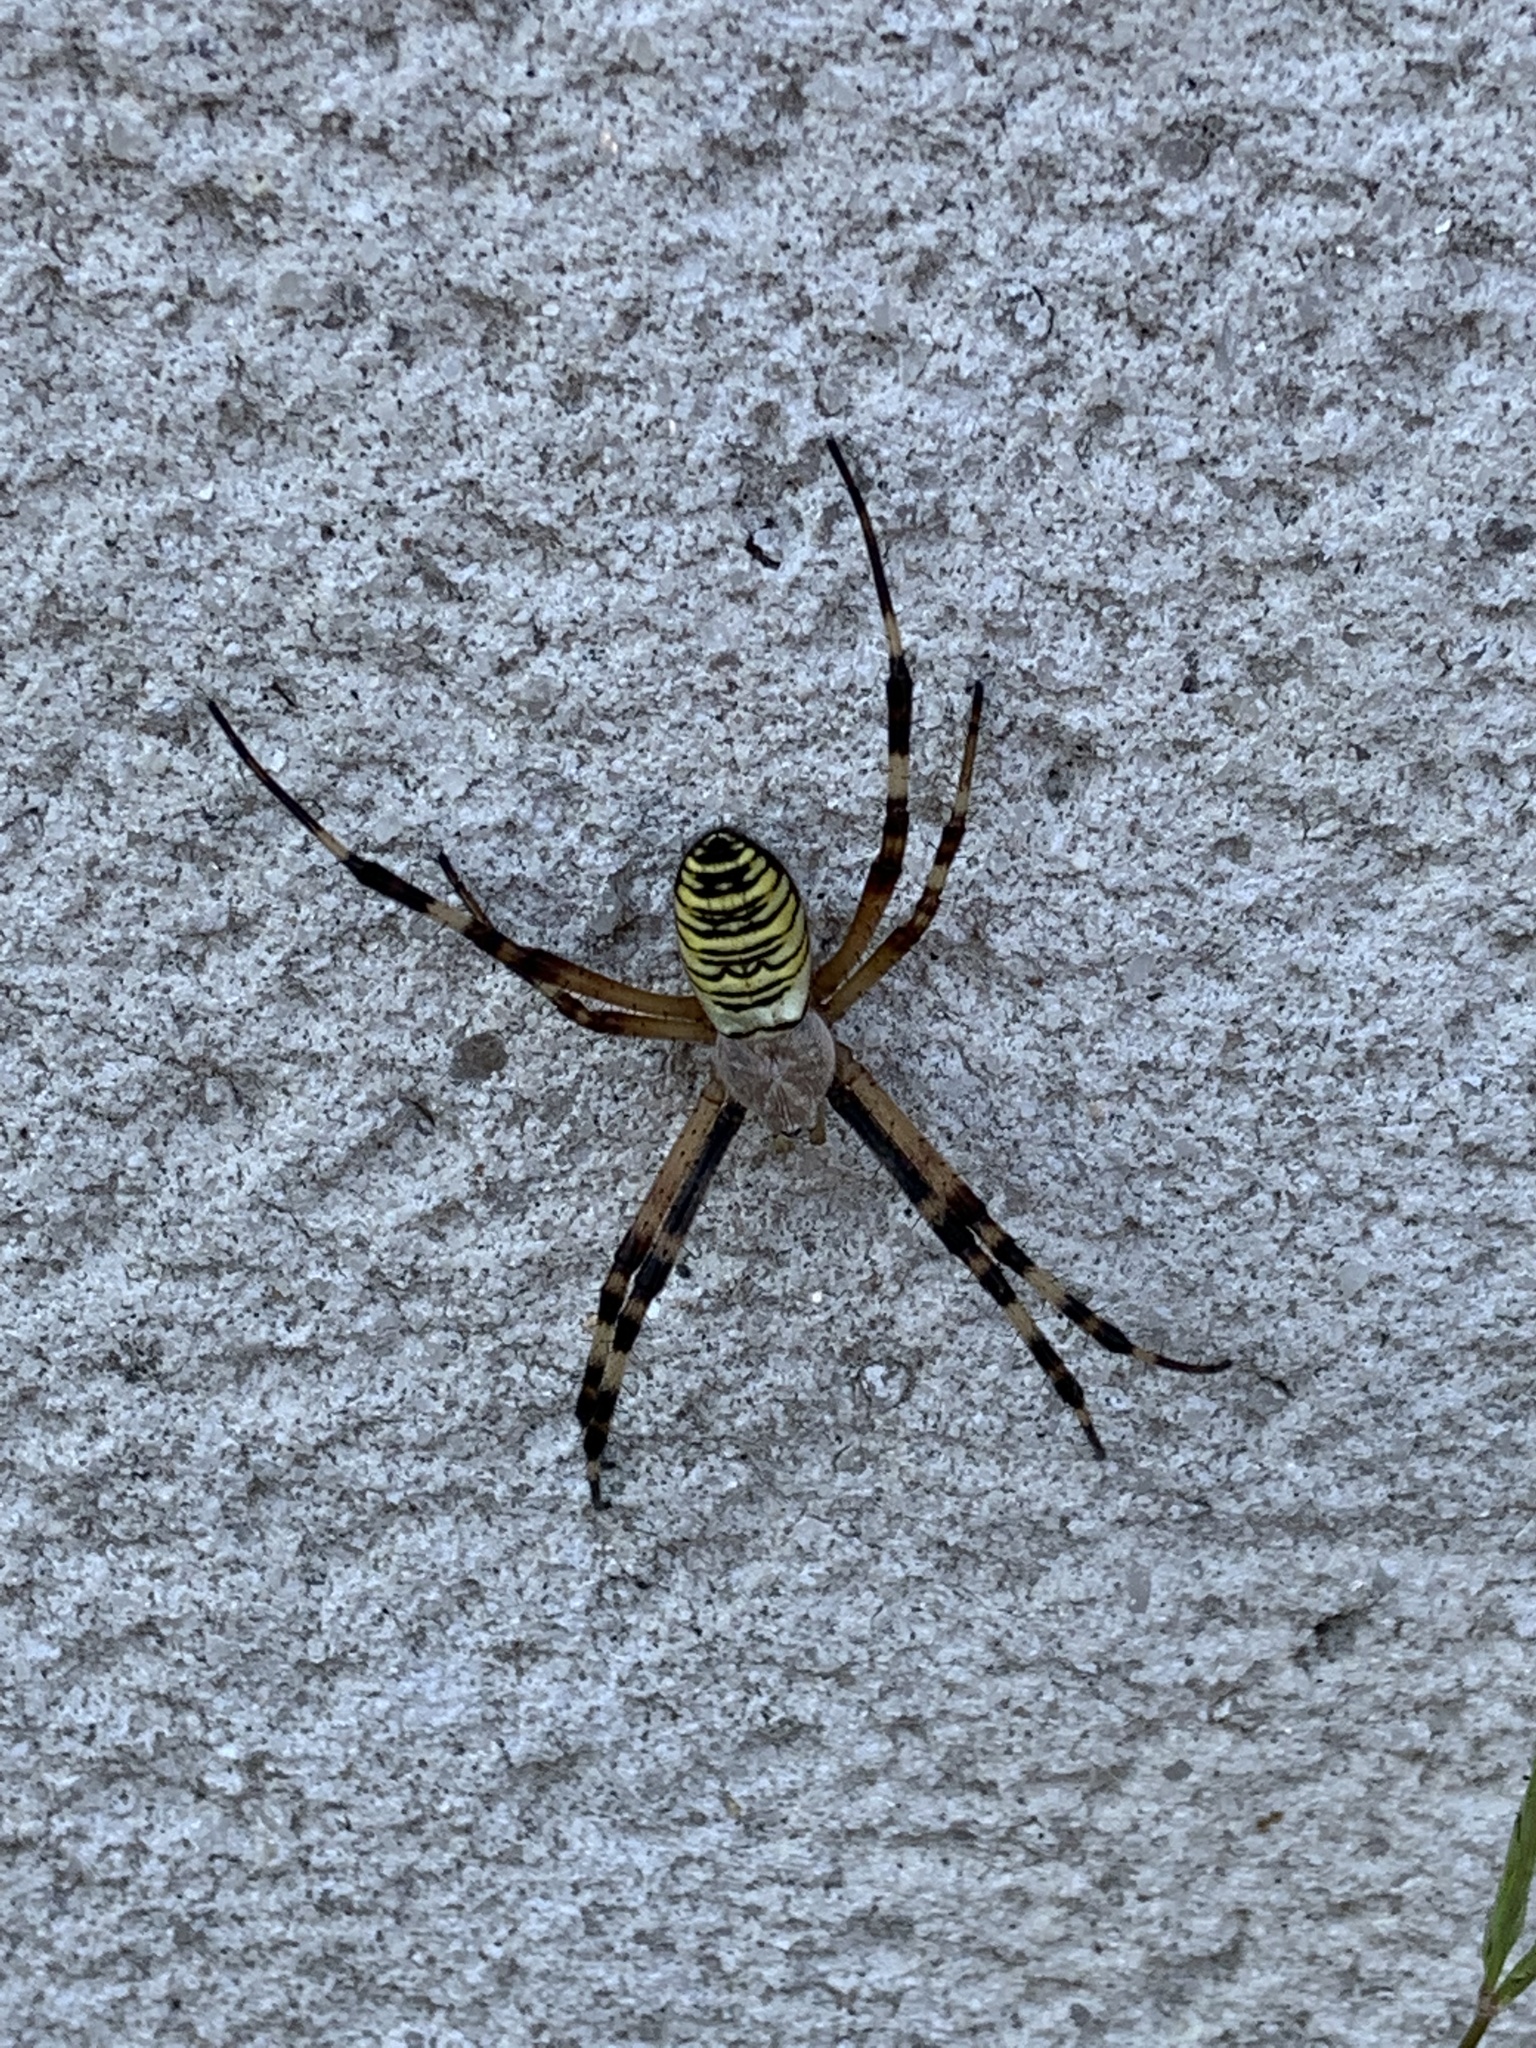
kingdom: Animalia
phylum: Arthropoda
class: Arachnida
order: Araneae
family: Araneidae
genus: Argiope
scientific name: Argiope bruennichi
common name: Wasp spider
